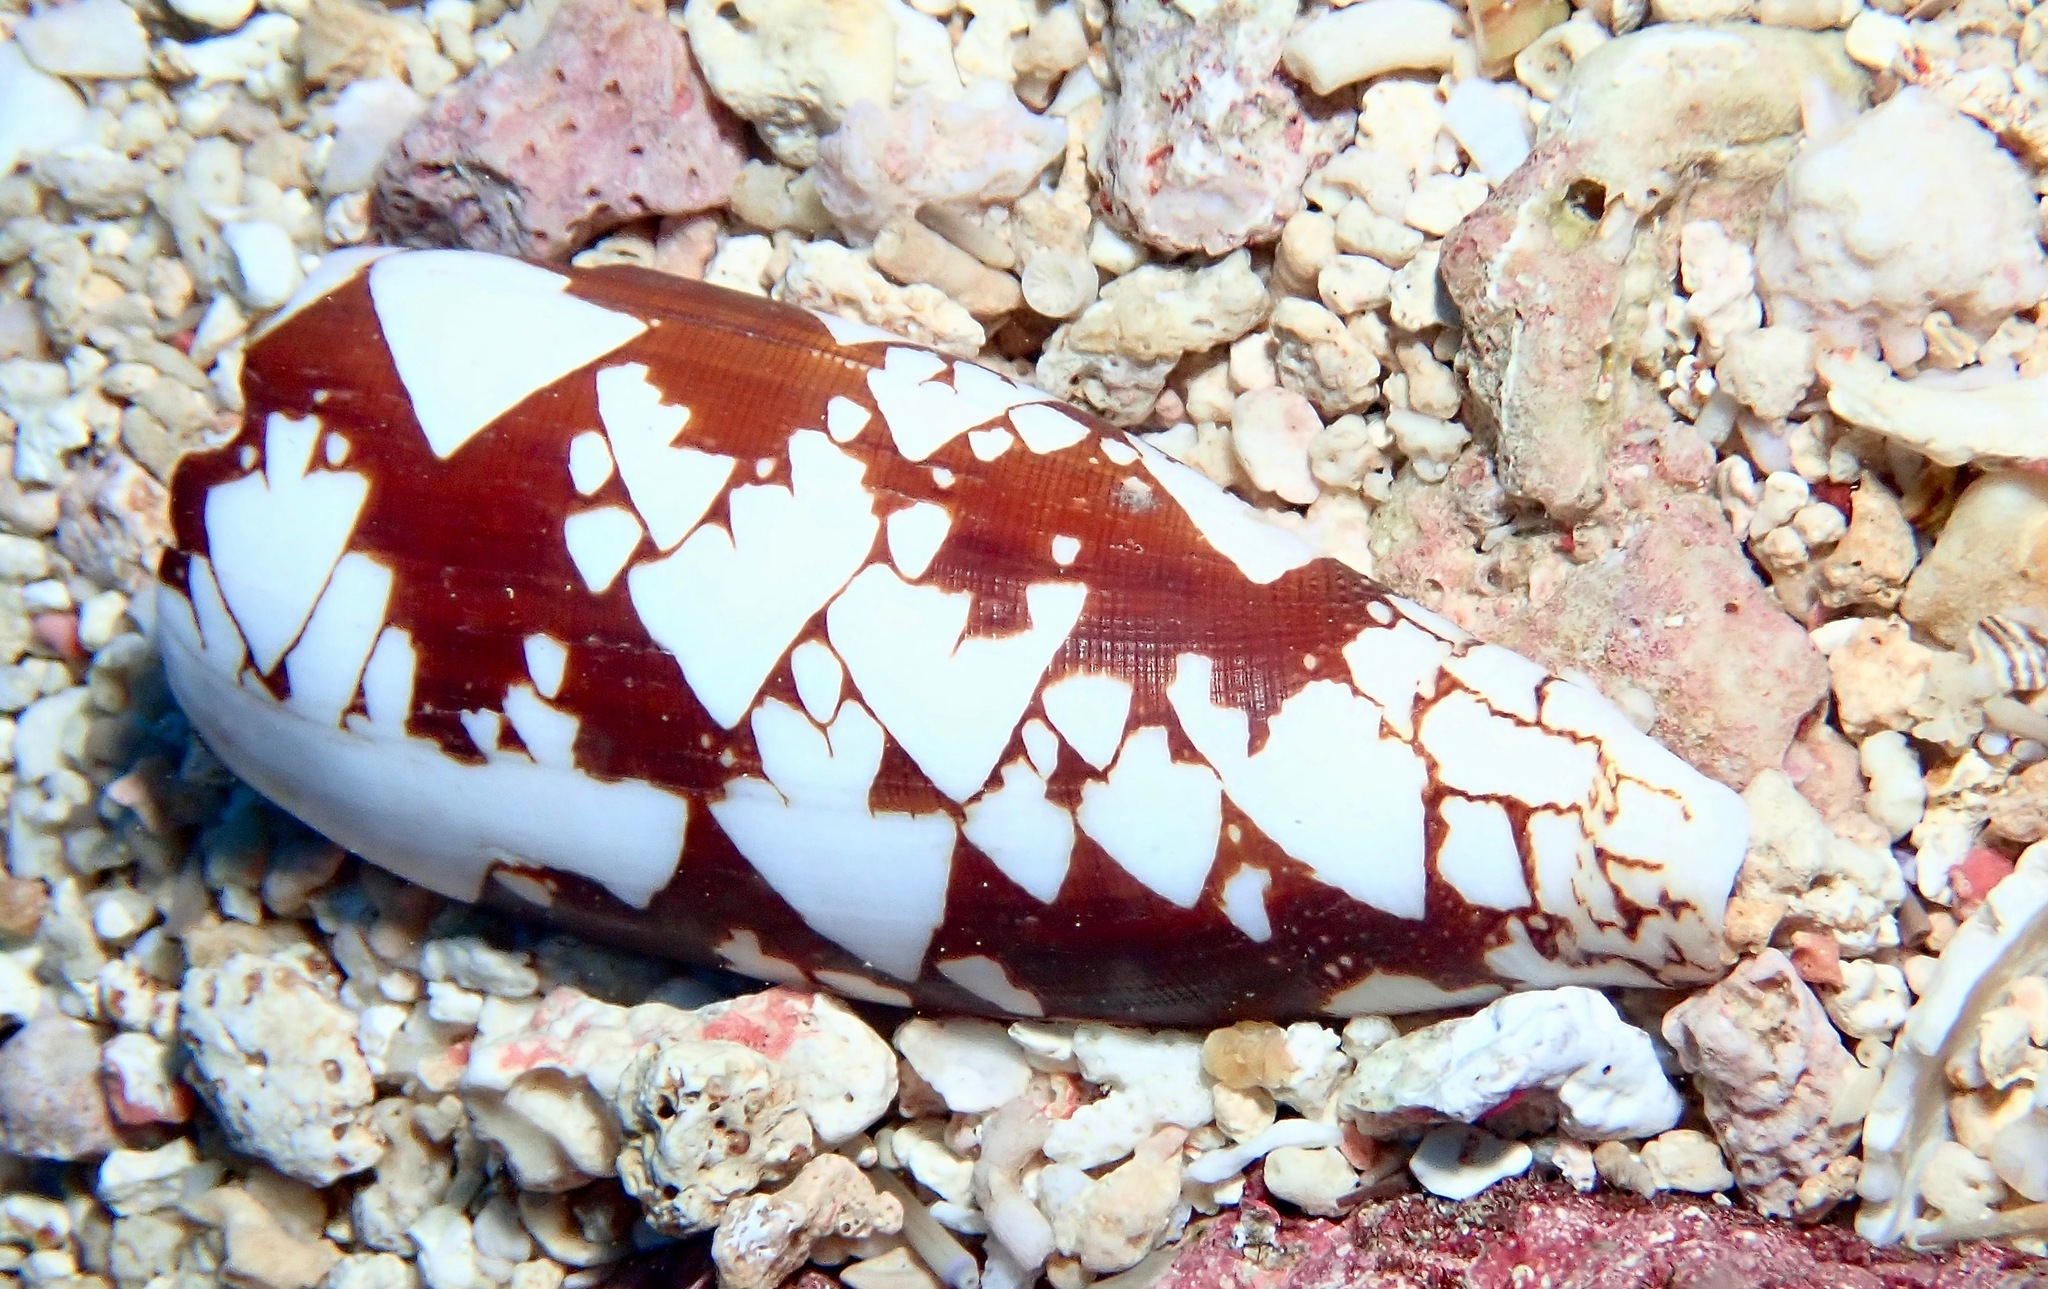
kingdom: Animalia
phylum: Mollusca
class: Gastropoda
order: Neogastropoda
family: Conidae
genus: Conus
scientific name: Conus aulicus
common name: Court cone
